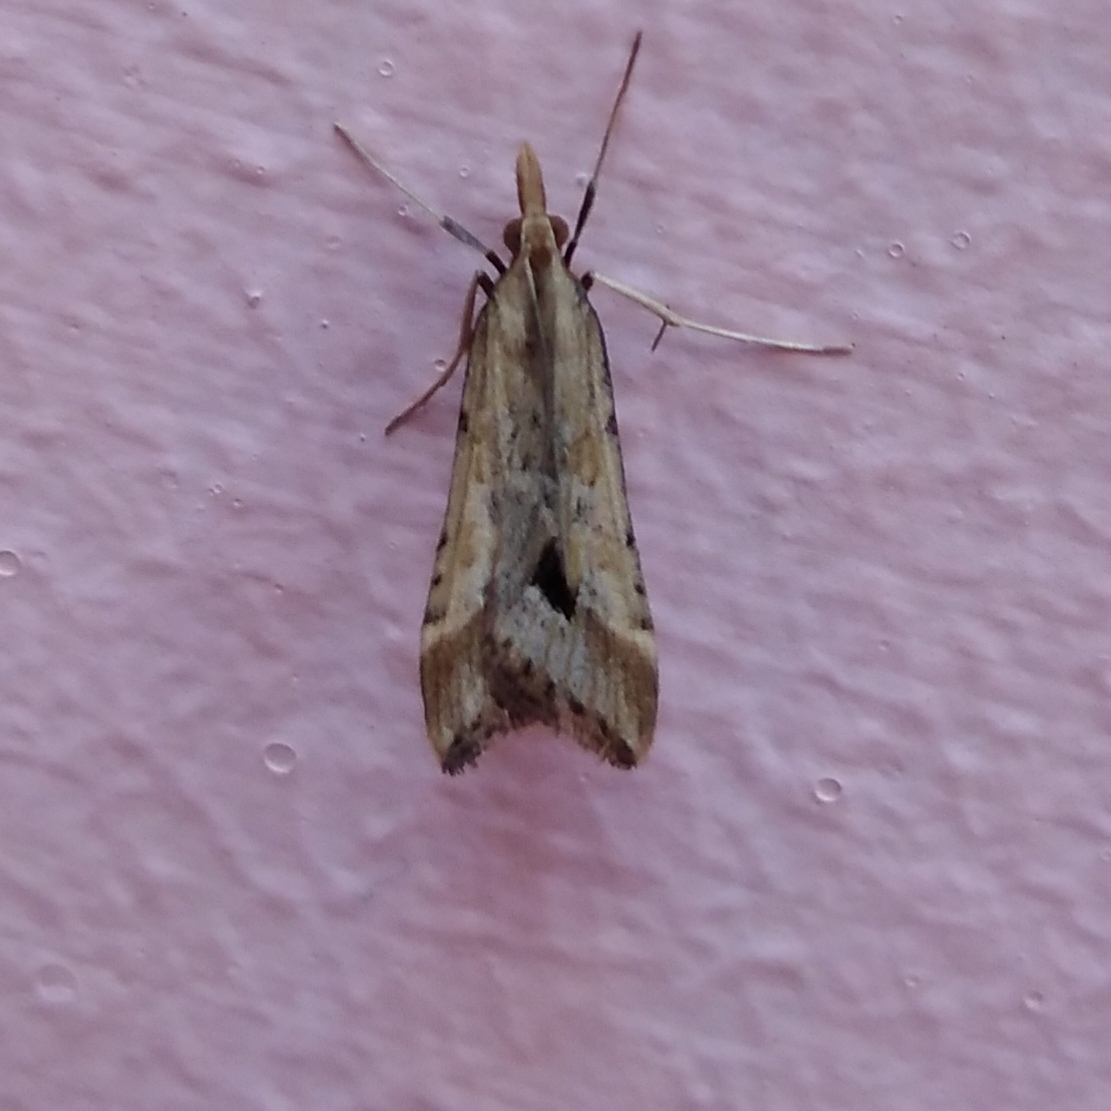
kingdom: Animalia
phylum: Arthropoda
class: Insecta
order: Lepidoptera
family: Crambidae
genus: Diasemia
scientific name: Diasemia monostigma
